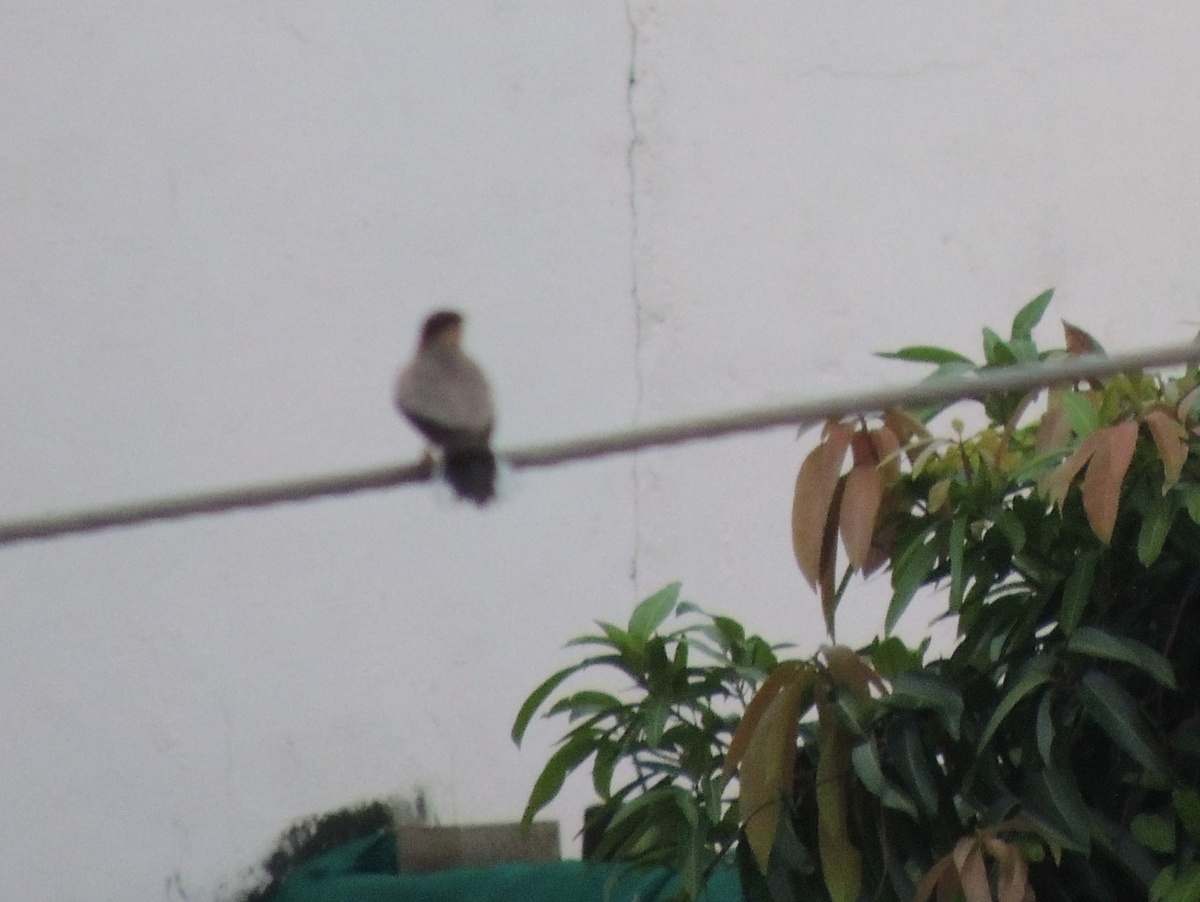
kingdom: Animalia
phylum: Chordata
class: Aves
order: Passeriformes
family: Sturnidae
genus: Sturnia
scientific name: Sturnia pagodarum
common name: Brahminy starling
